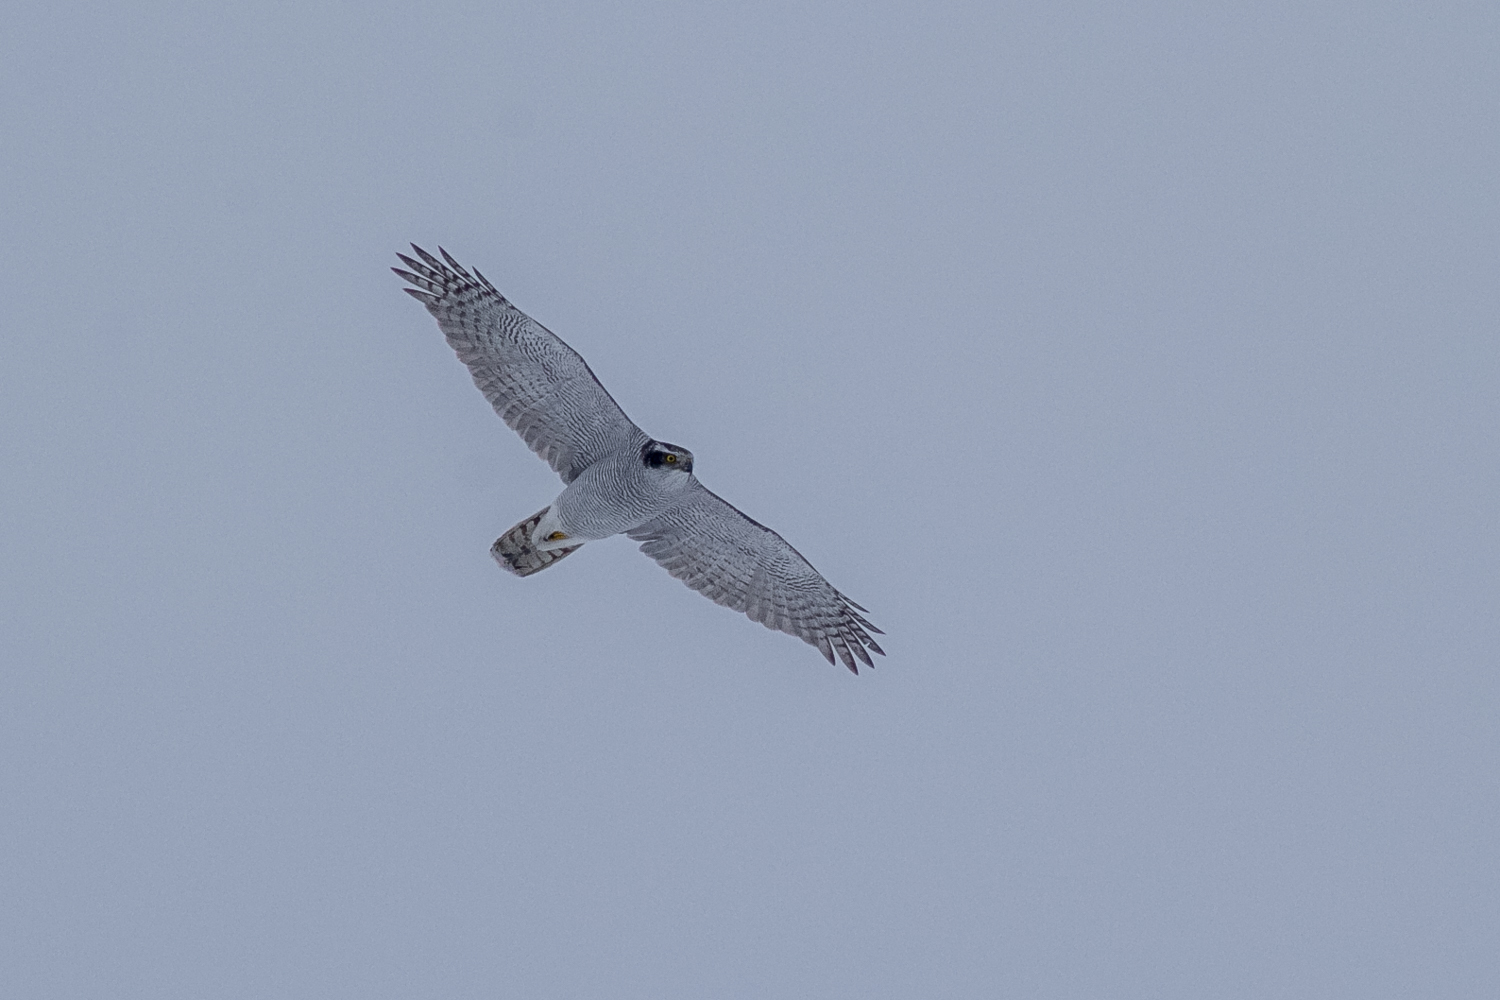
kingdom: Animalia
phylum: Chordata
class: Aves
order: Accipitriformes
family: Accipitridae
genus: Accipiter
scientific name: Accipiter gentilis
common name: Northern goshawk
